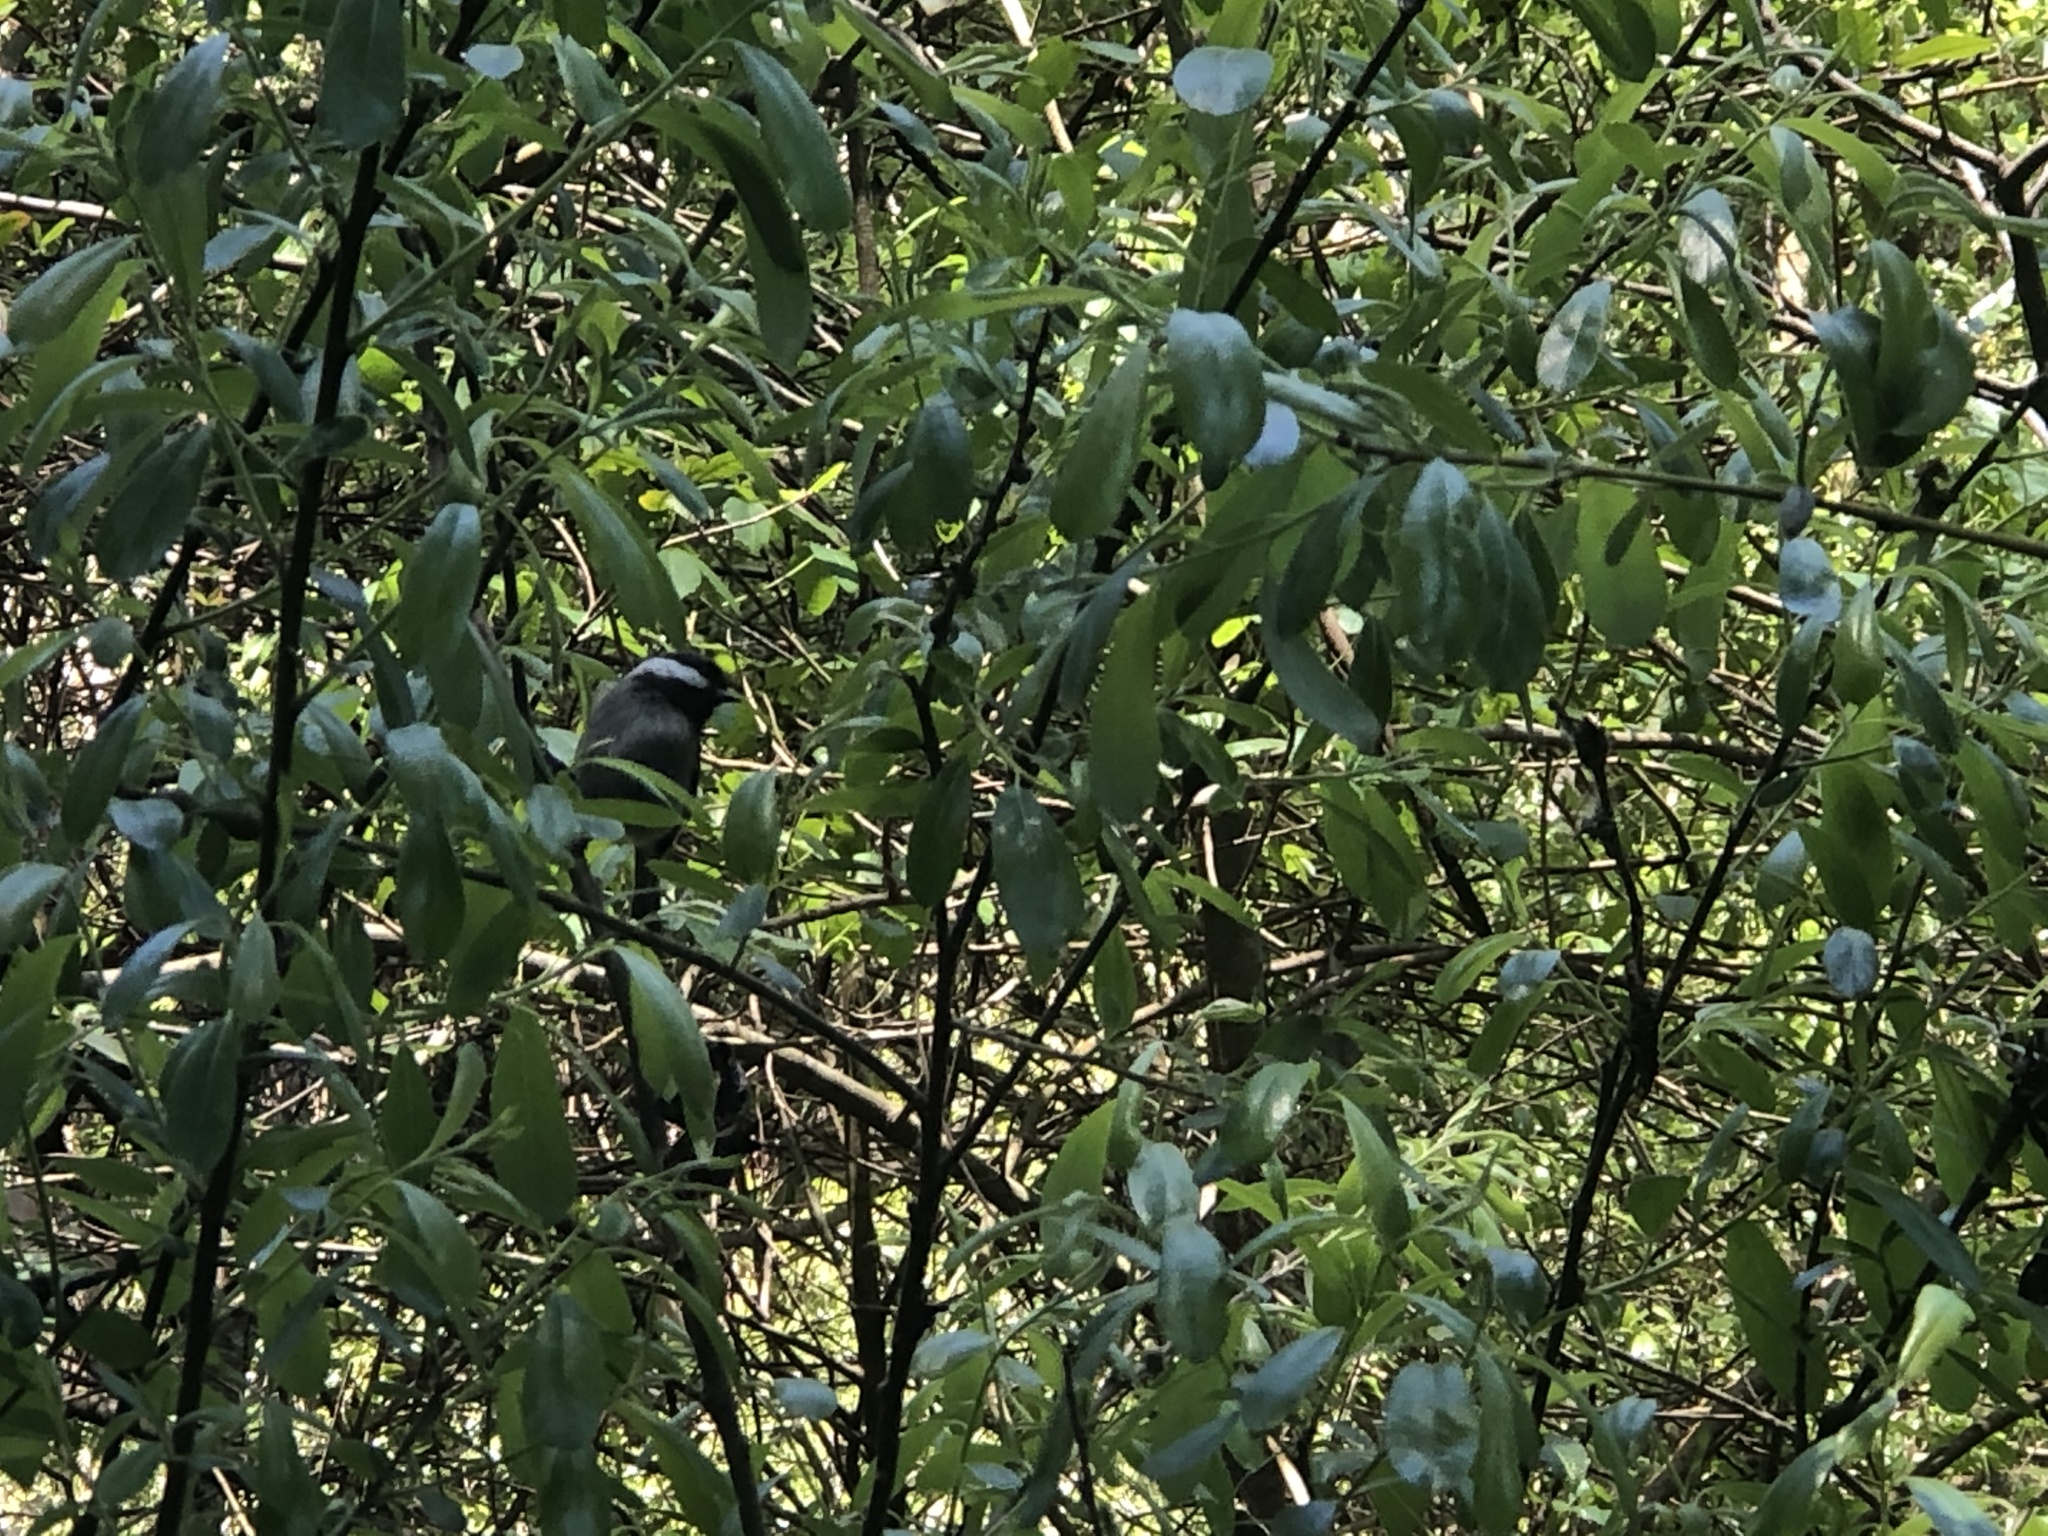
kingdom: Animalia
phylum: Chordata
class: Aves
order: Passeriformes
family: Paridae
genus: Poecile
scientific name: Poecile rufescens
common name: Chestnut-backed chickadee
